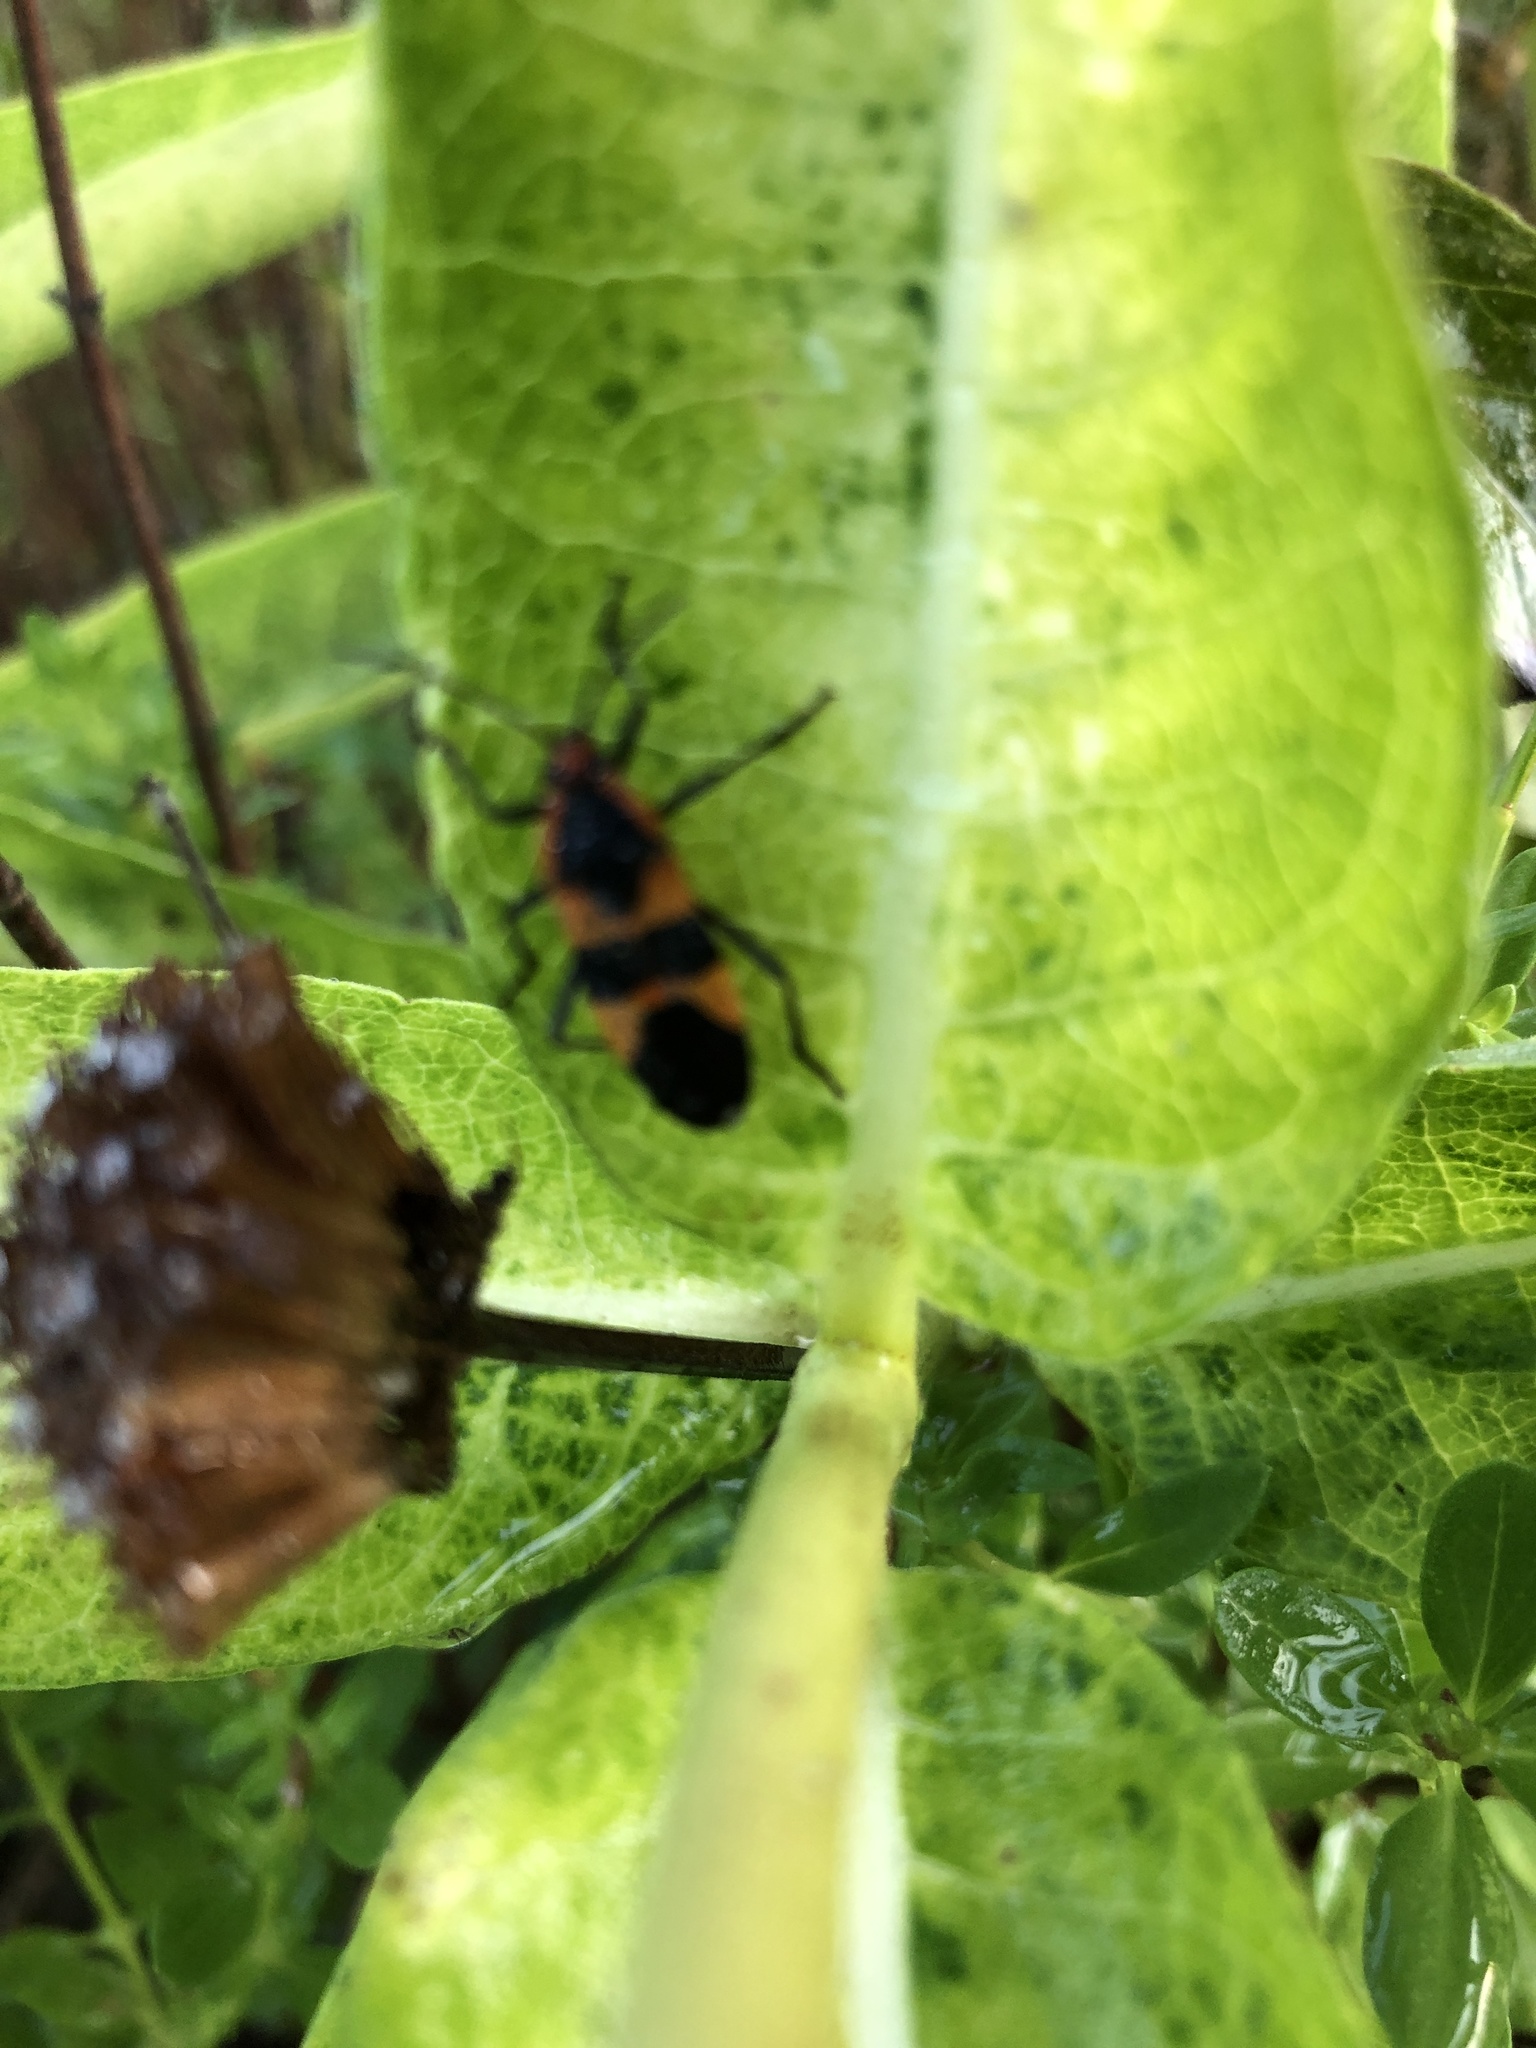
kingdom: Animalia
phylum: Arthropoda
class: Insecta
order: Hemiptera
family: Lygaeidae
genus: Oncopeltus
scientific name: Oncopeltus fasciatus
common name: Large milkweed bug
